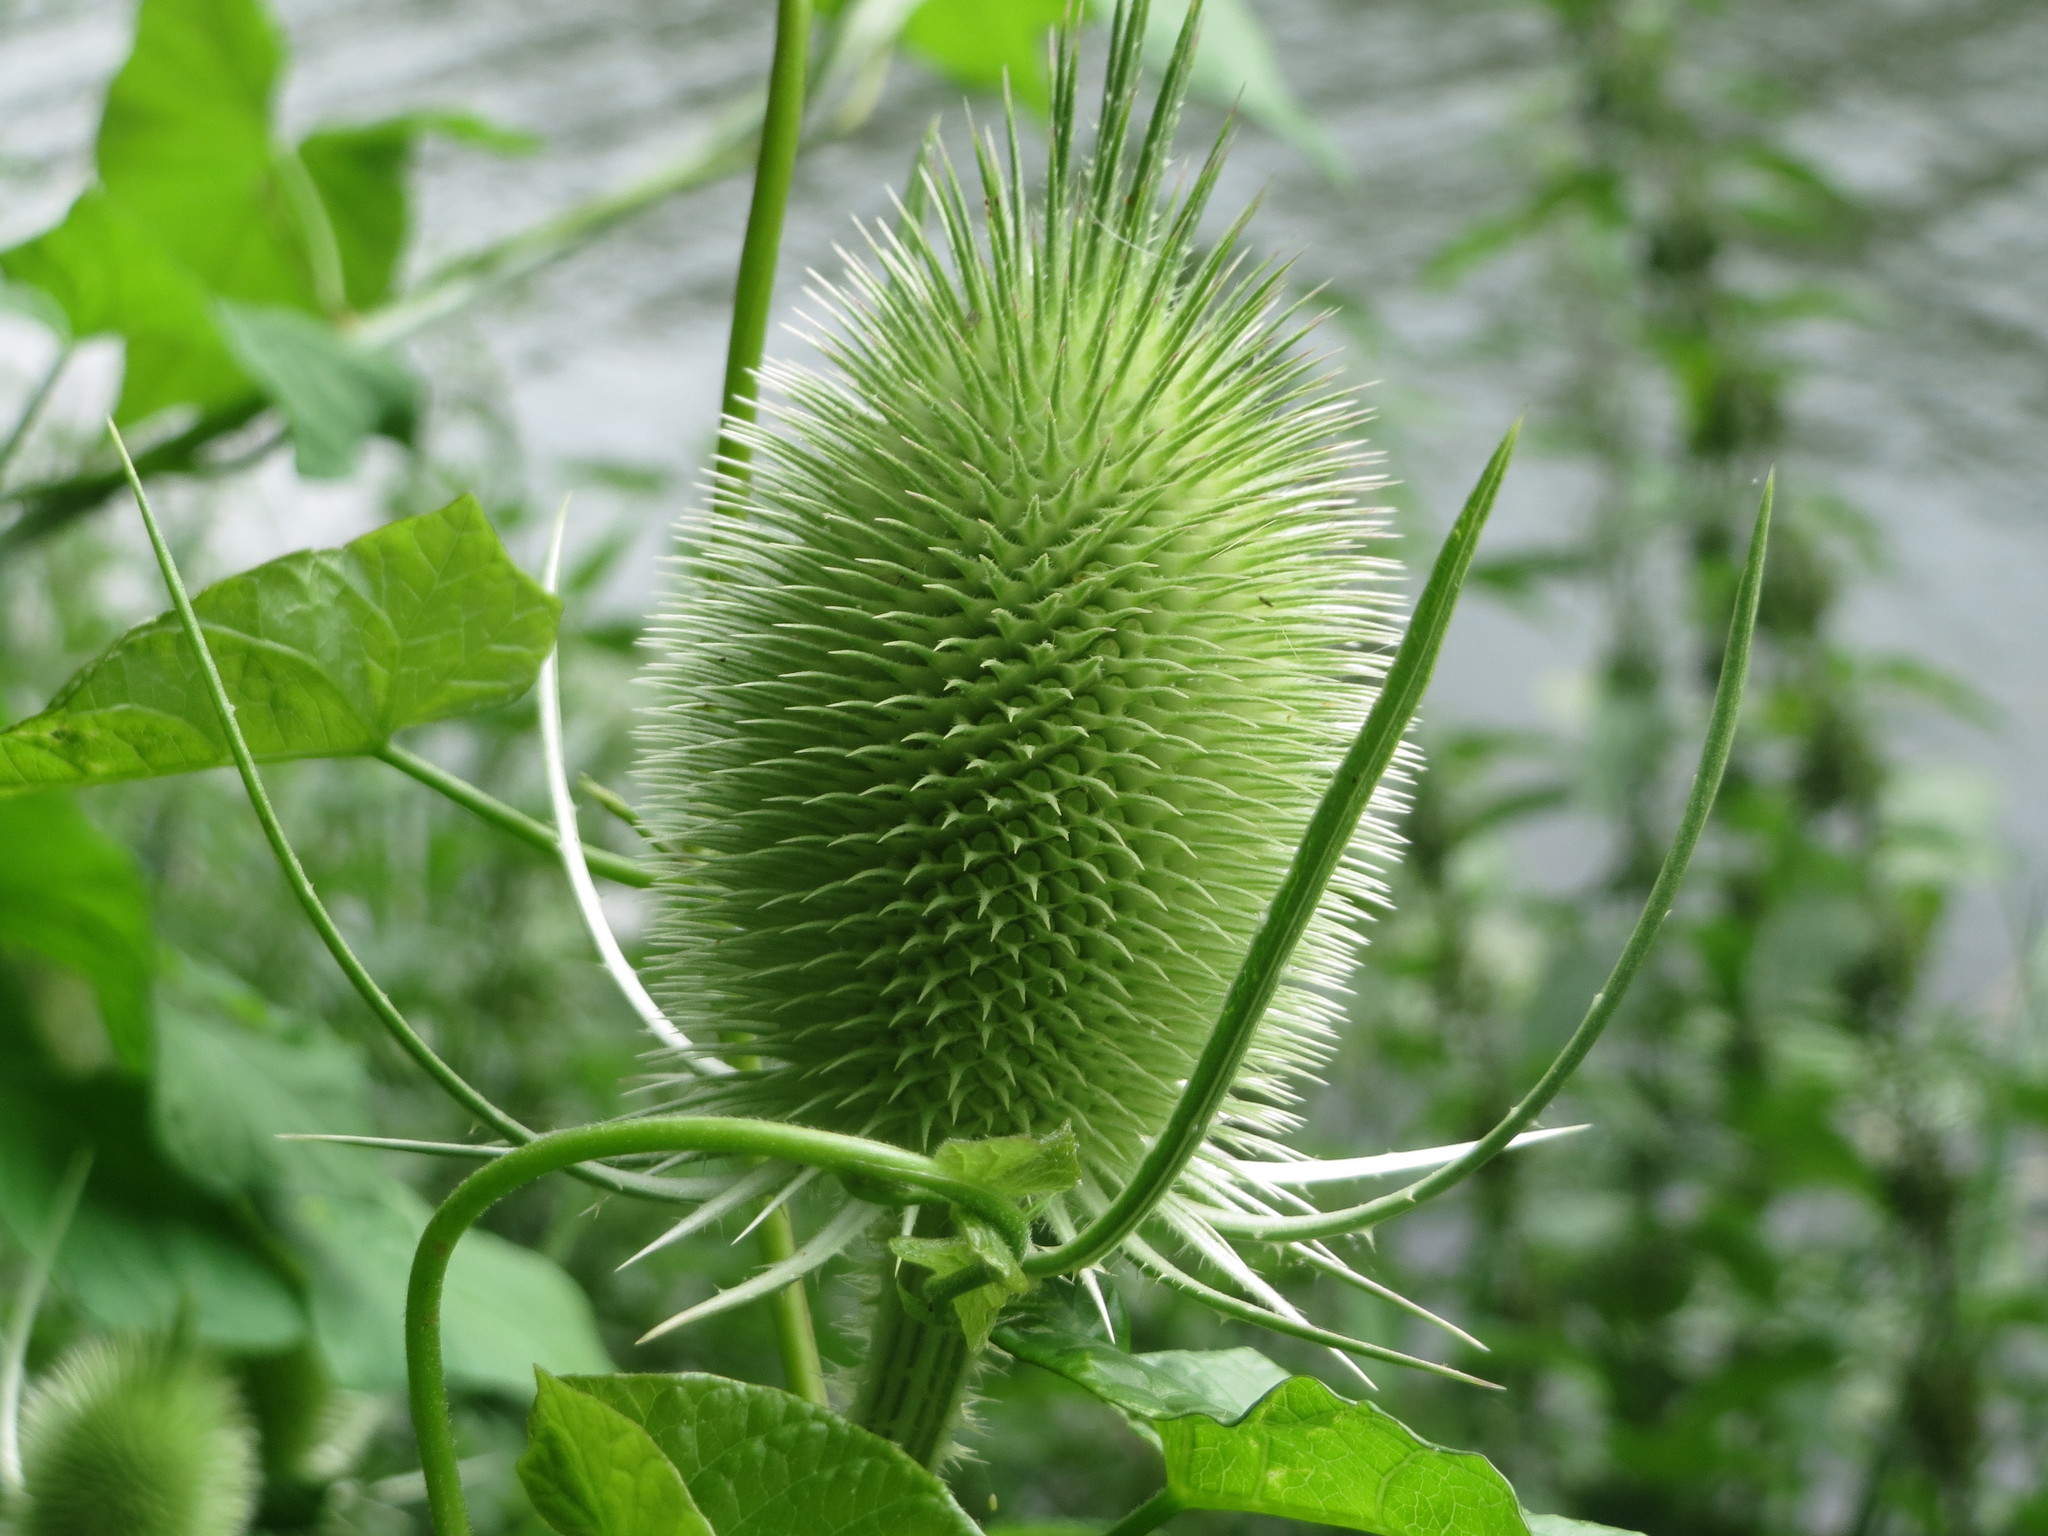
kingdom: Plantae
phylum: Tracheophyta
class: Magnoliopsida
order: Dipsacales
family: Caprifoliaceae
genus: Dipsacus
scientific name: Dipsacus fullonum
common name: Teasel
